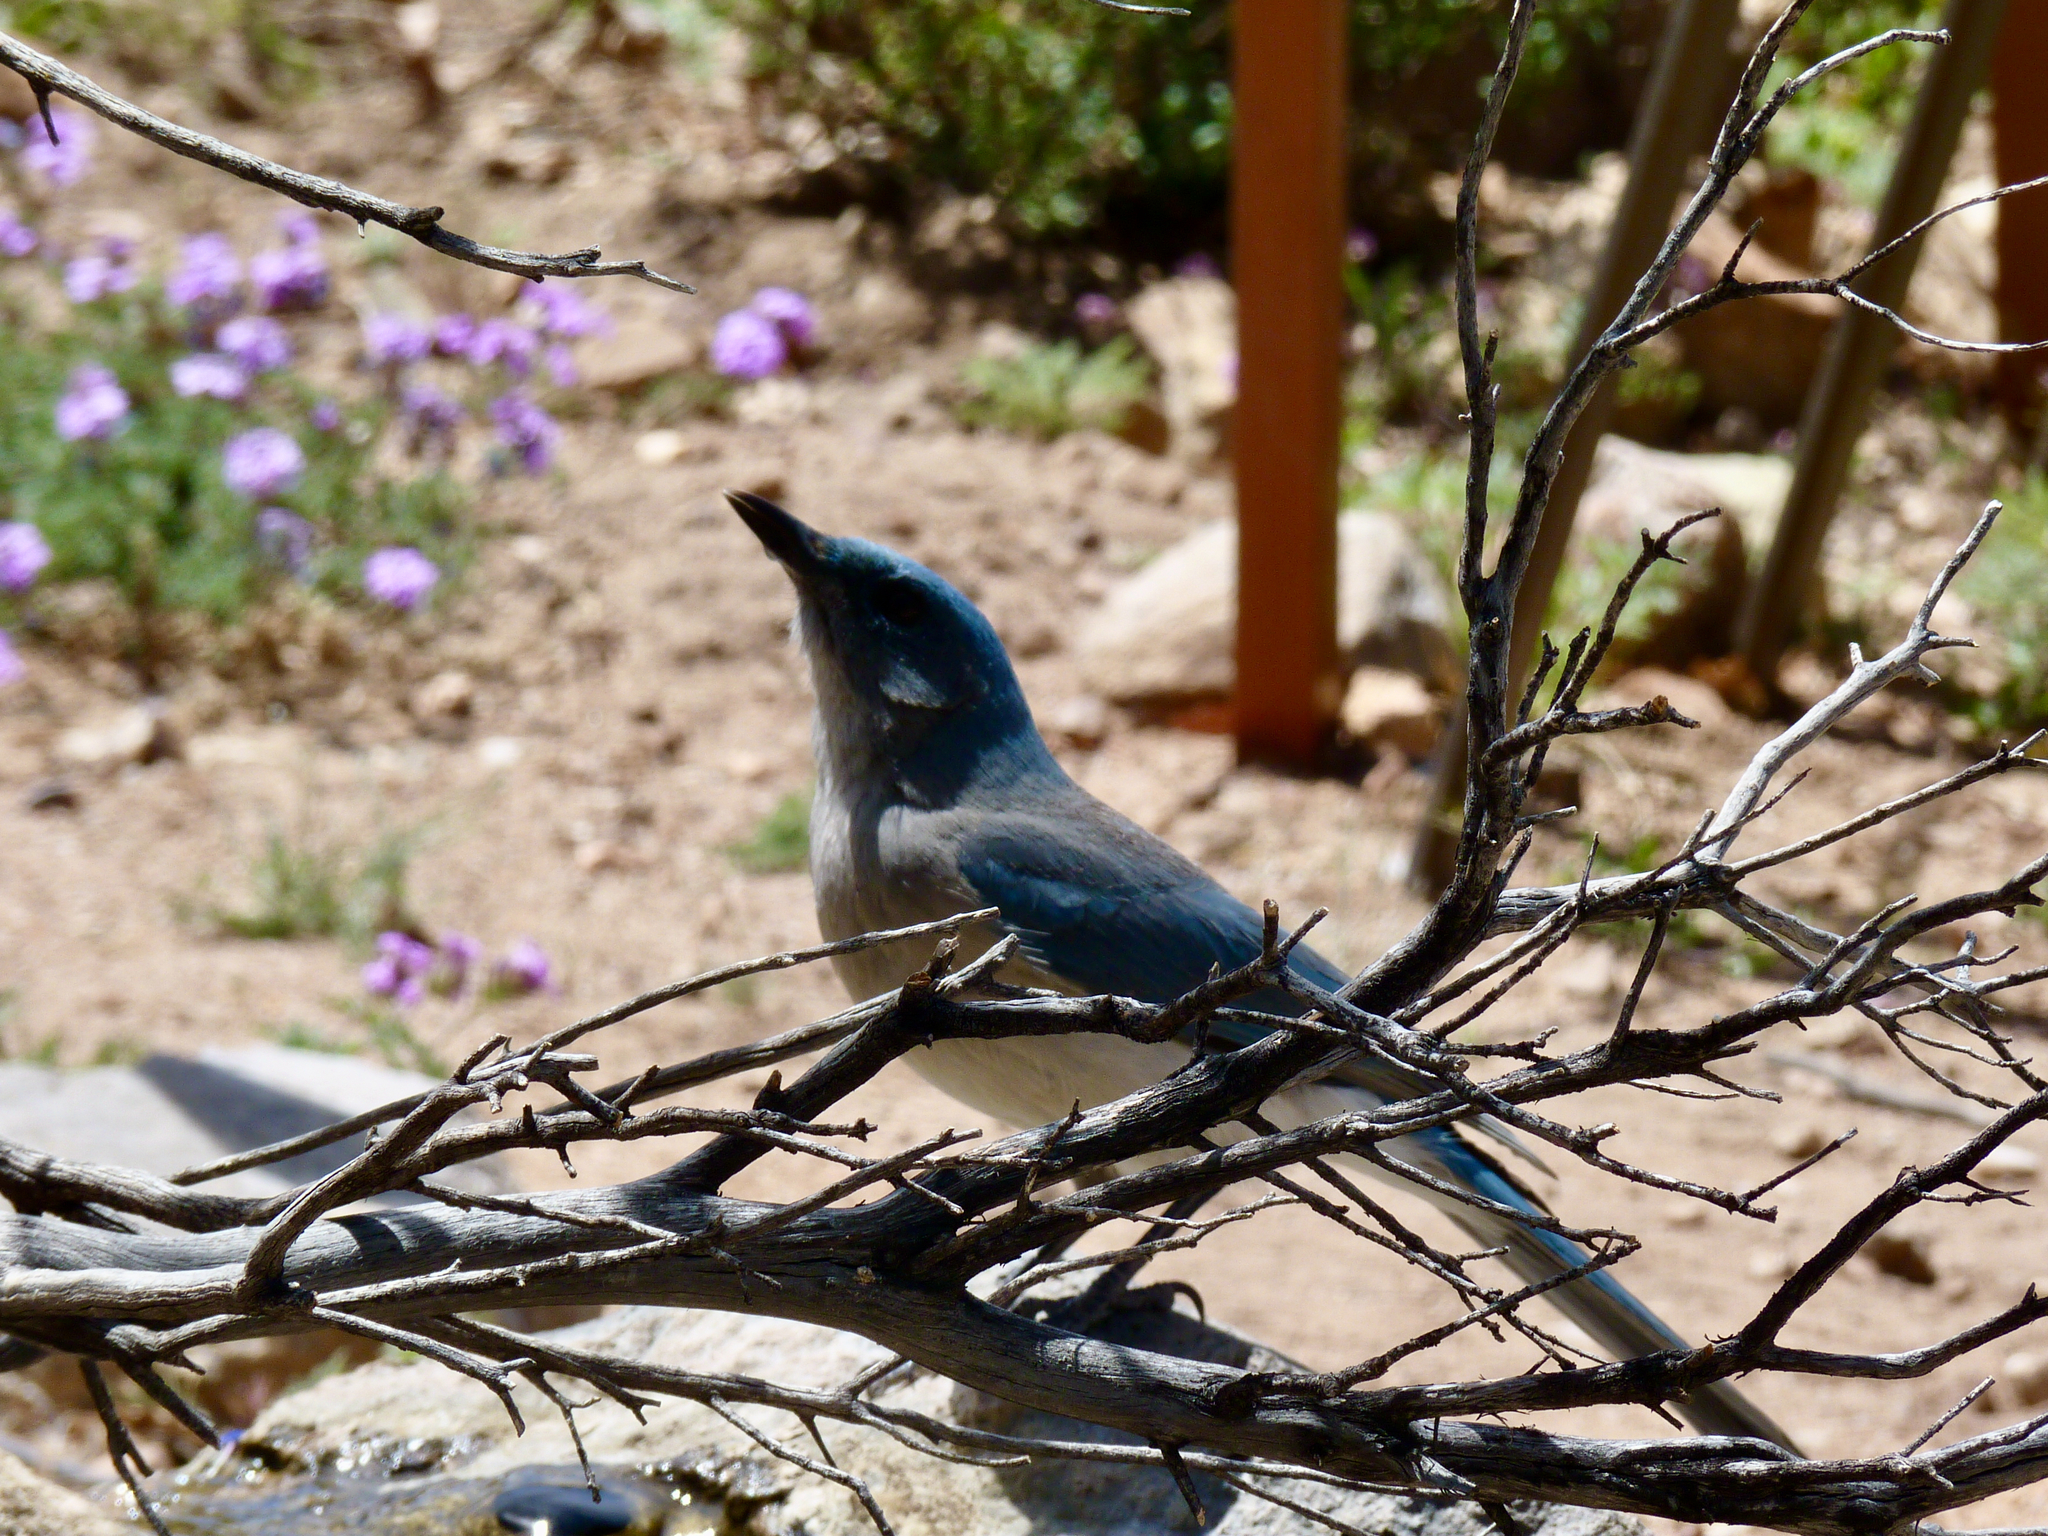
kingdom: Animalia
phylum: Chordata
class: Aves
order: Passeriformes
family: Corvidae
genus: Aphelocoma
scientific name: Aphelocoma wollweberi
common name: Mexican jay
